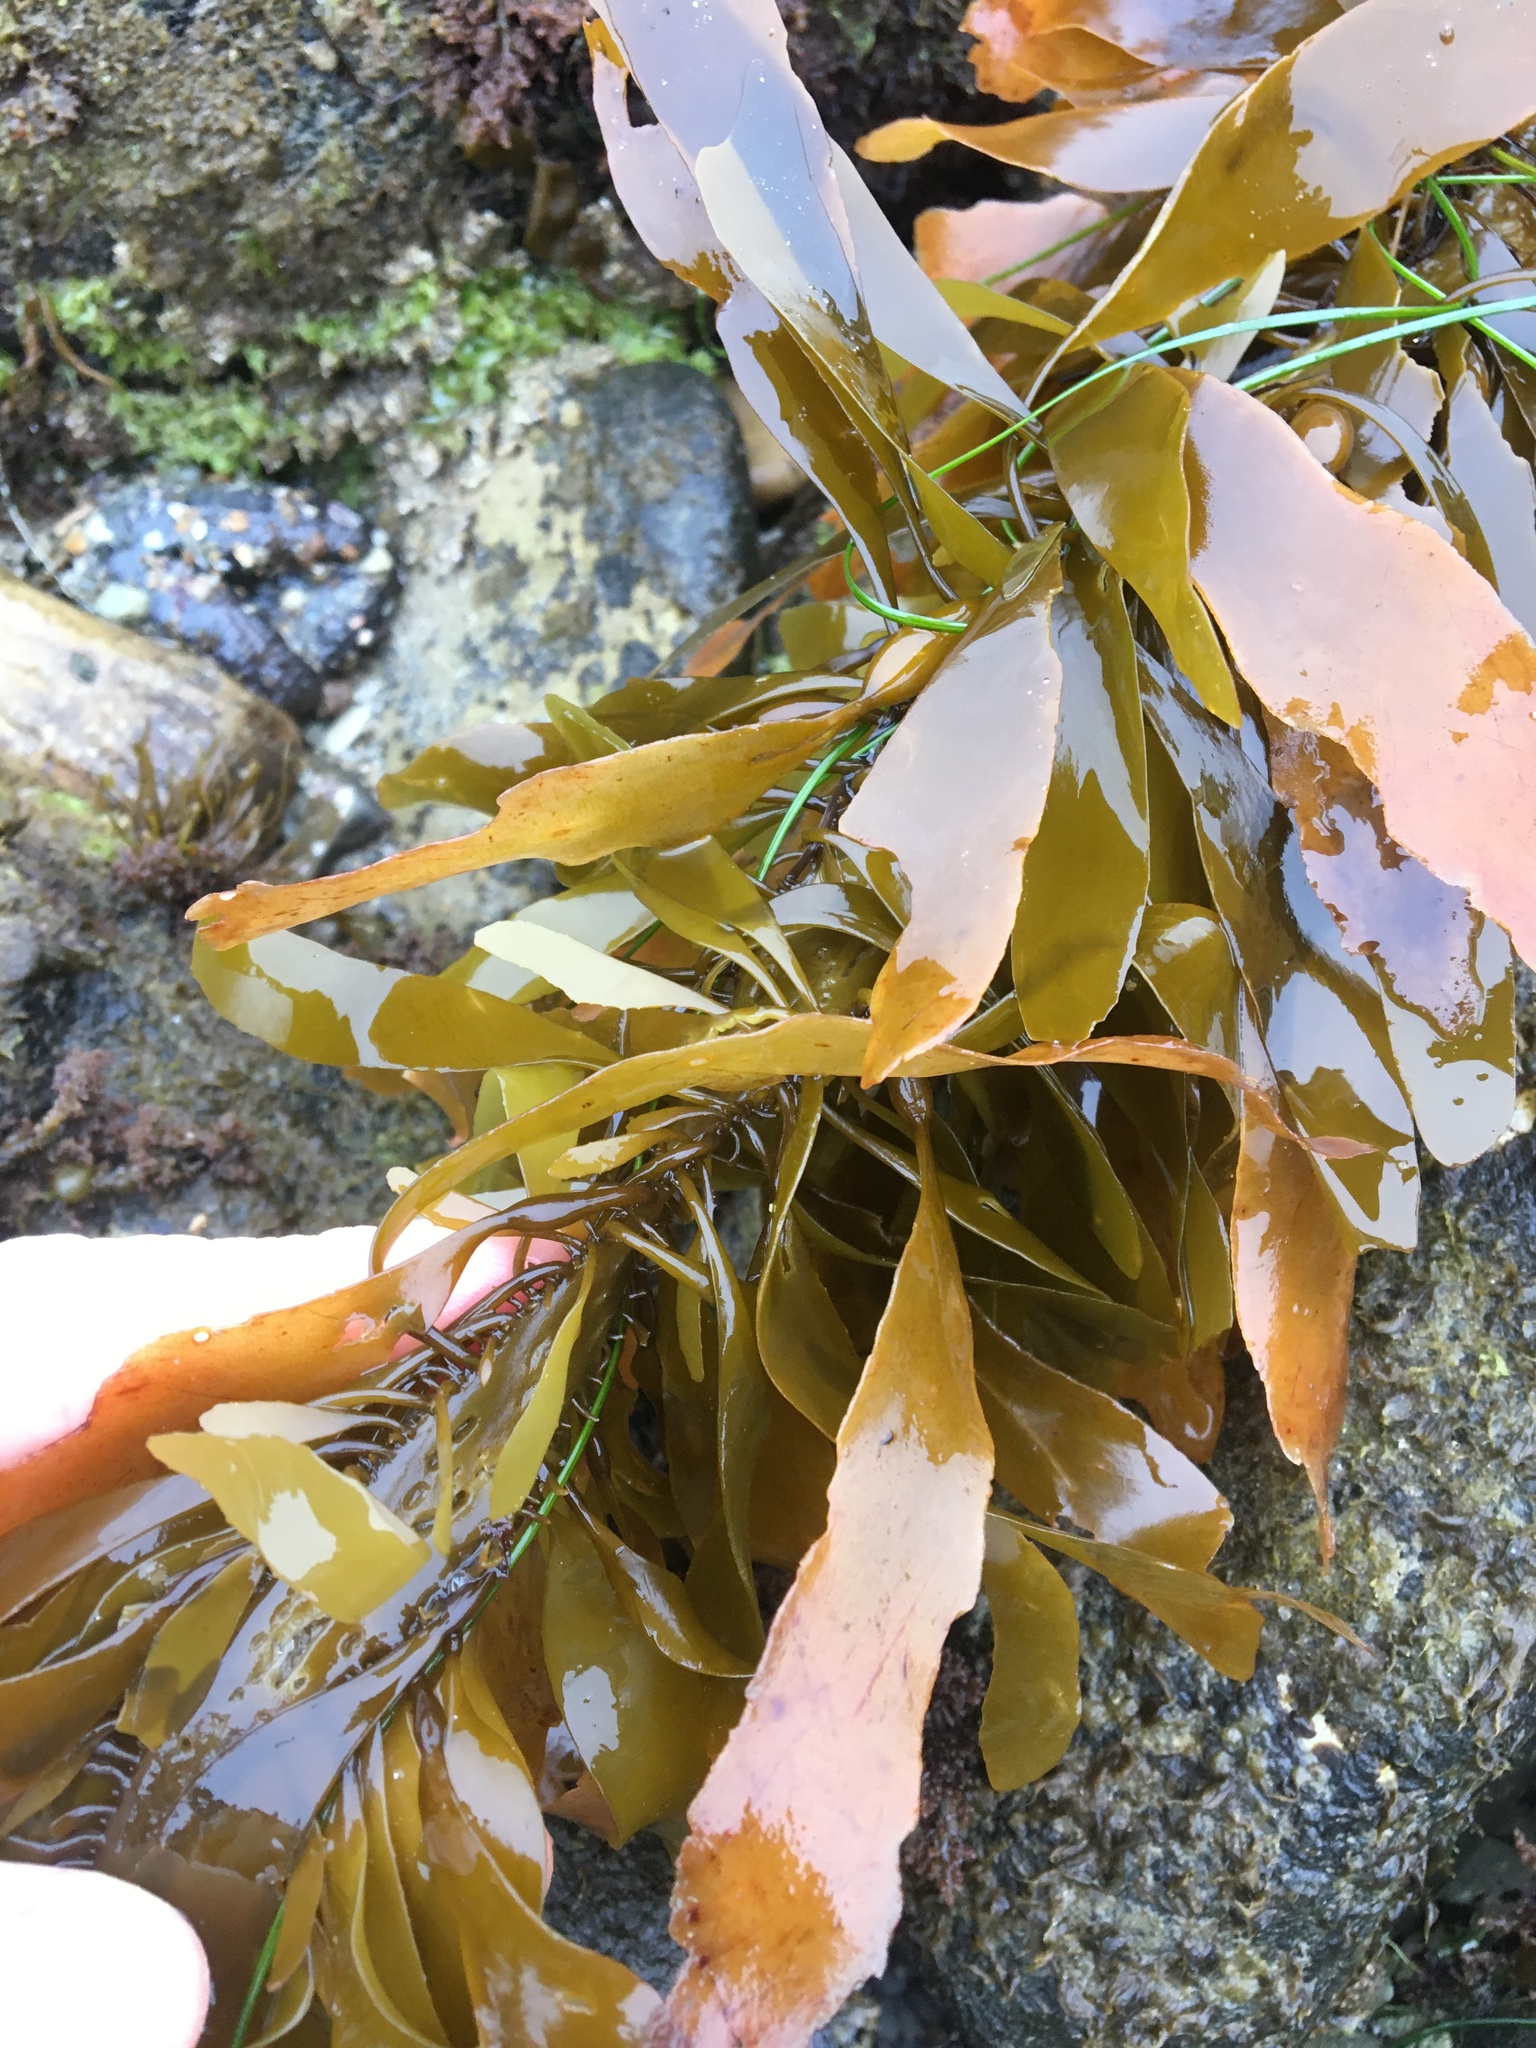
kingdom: Chromista
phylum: Ochrophyta
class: Phaeophyceae
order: Laminariales
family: Lessoniaceae
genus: Egregia
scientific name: Egregia menziesii
